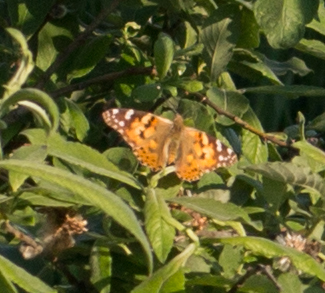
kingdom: Animalia
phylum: Arthropoda
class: Insecta
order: Lepidoptera
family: Nymphalidae
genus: Vanessa
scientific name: Vanessa cardui
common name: Painted lady
